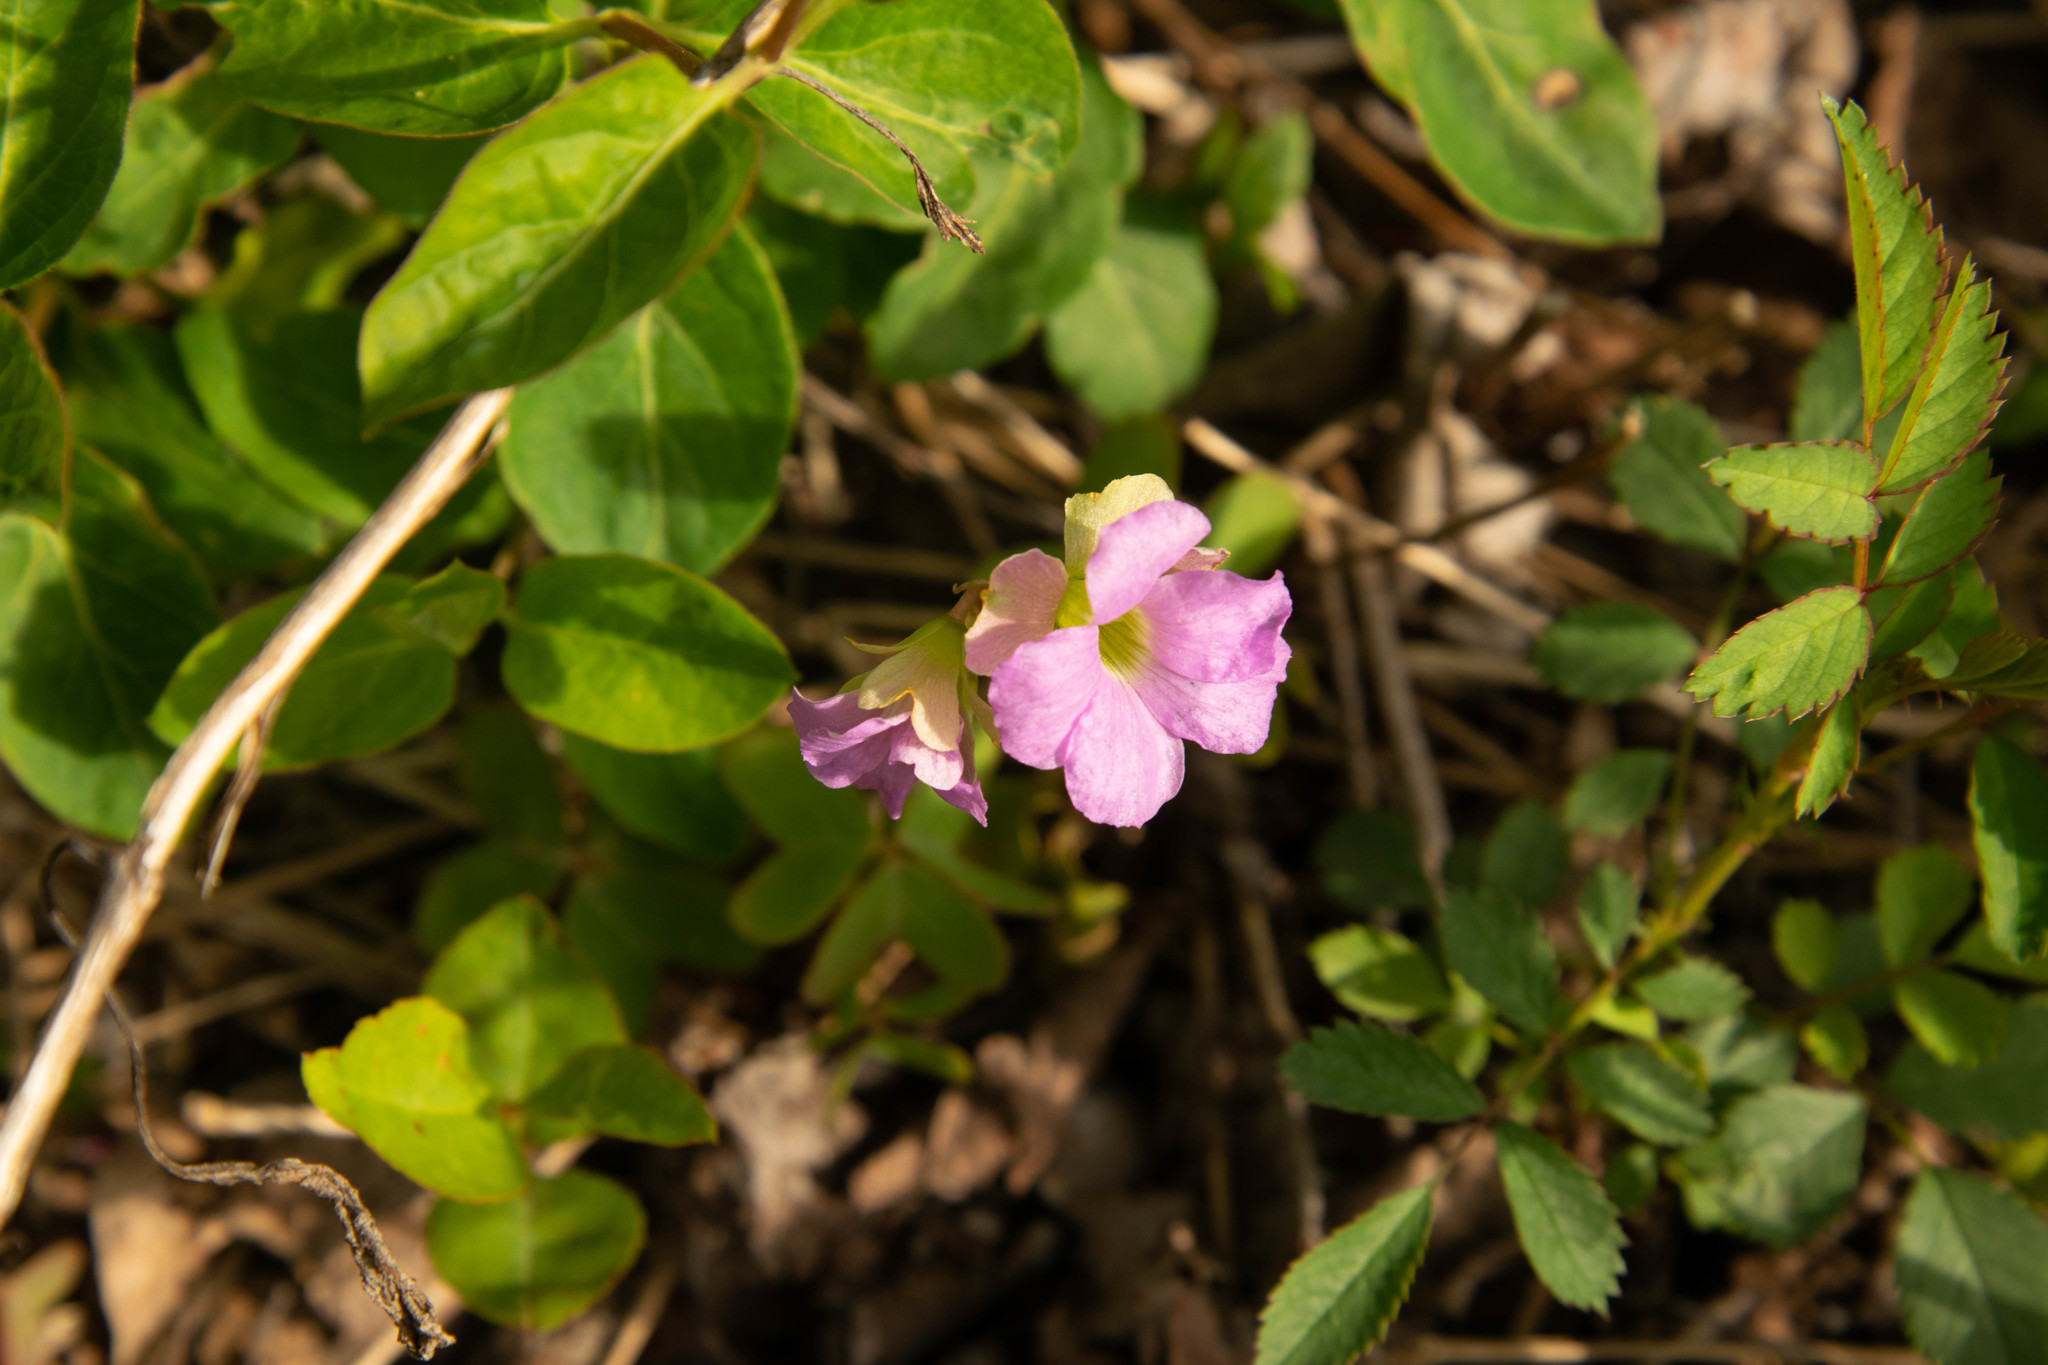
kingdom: Plantae
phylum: Tracheophyta
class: Magnoliopsida
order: Oxalidales
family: Oxalidaceae
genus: Oxalis
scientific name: Oxalis violacea
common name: Violet wood-sorrel
